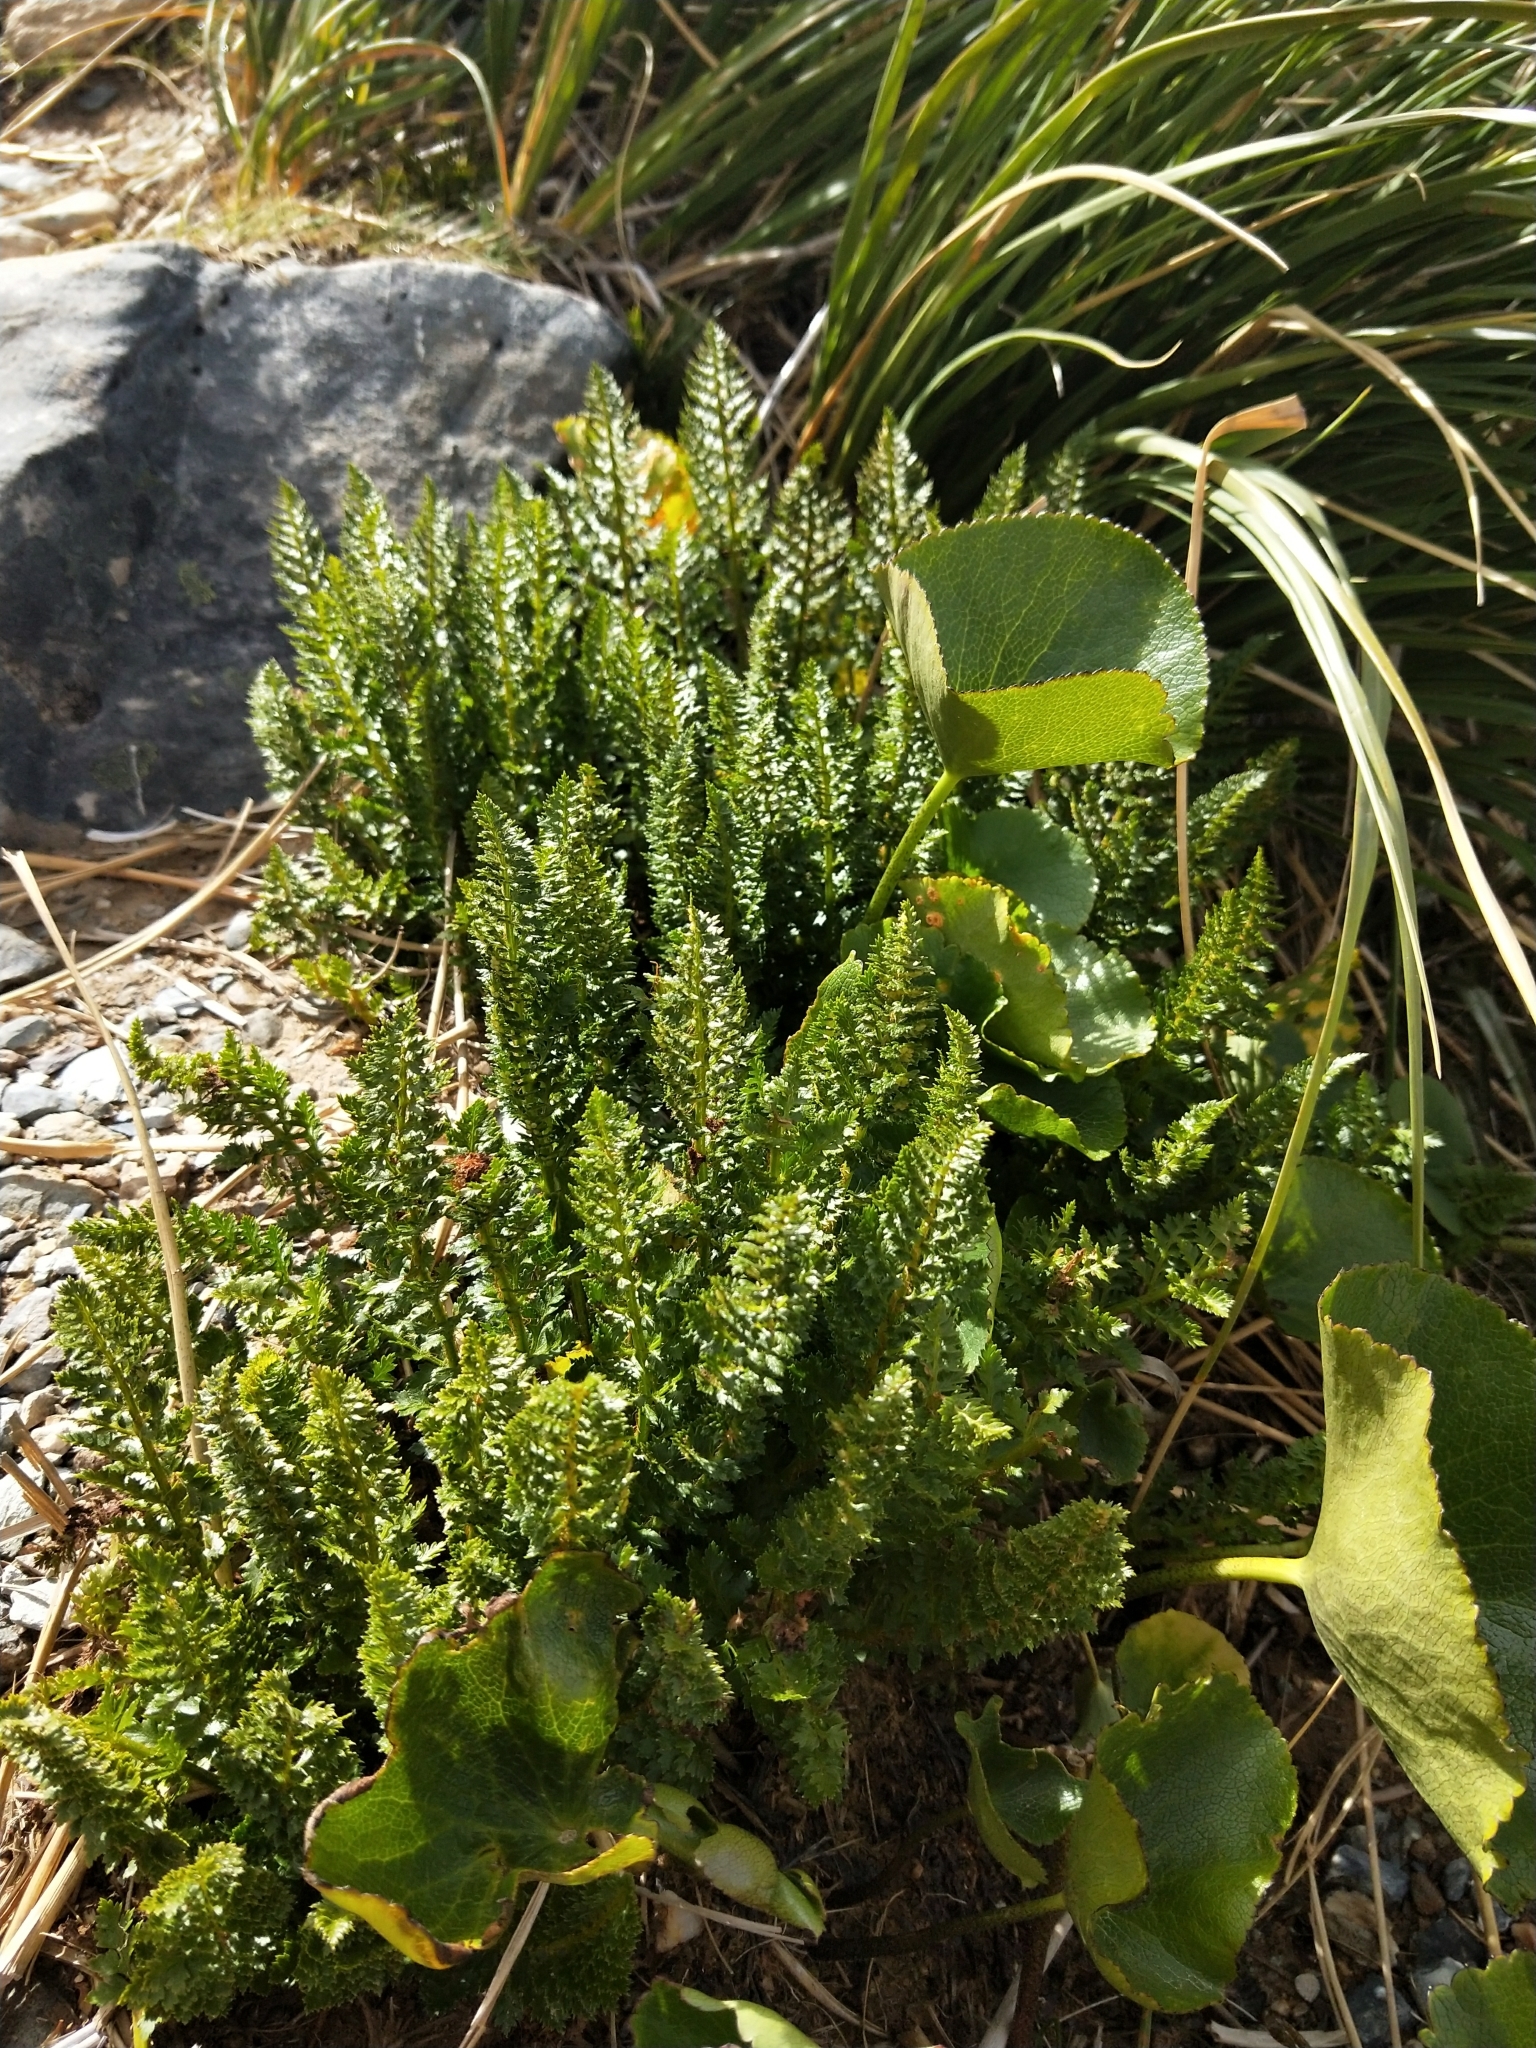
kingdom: Plantae
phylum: Tracheophyta
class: Polypodiopsida
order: Polypodiales
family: Dryopteridaceae
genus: Polystichum
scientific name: Polystichum cystostegia
